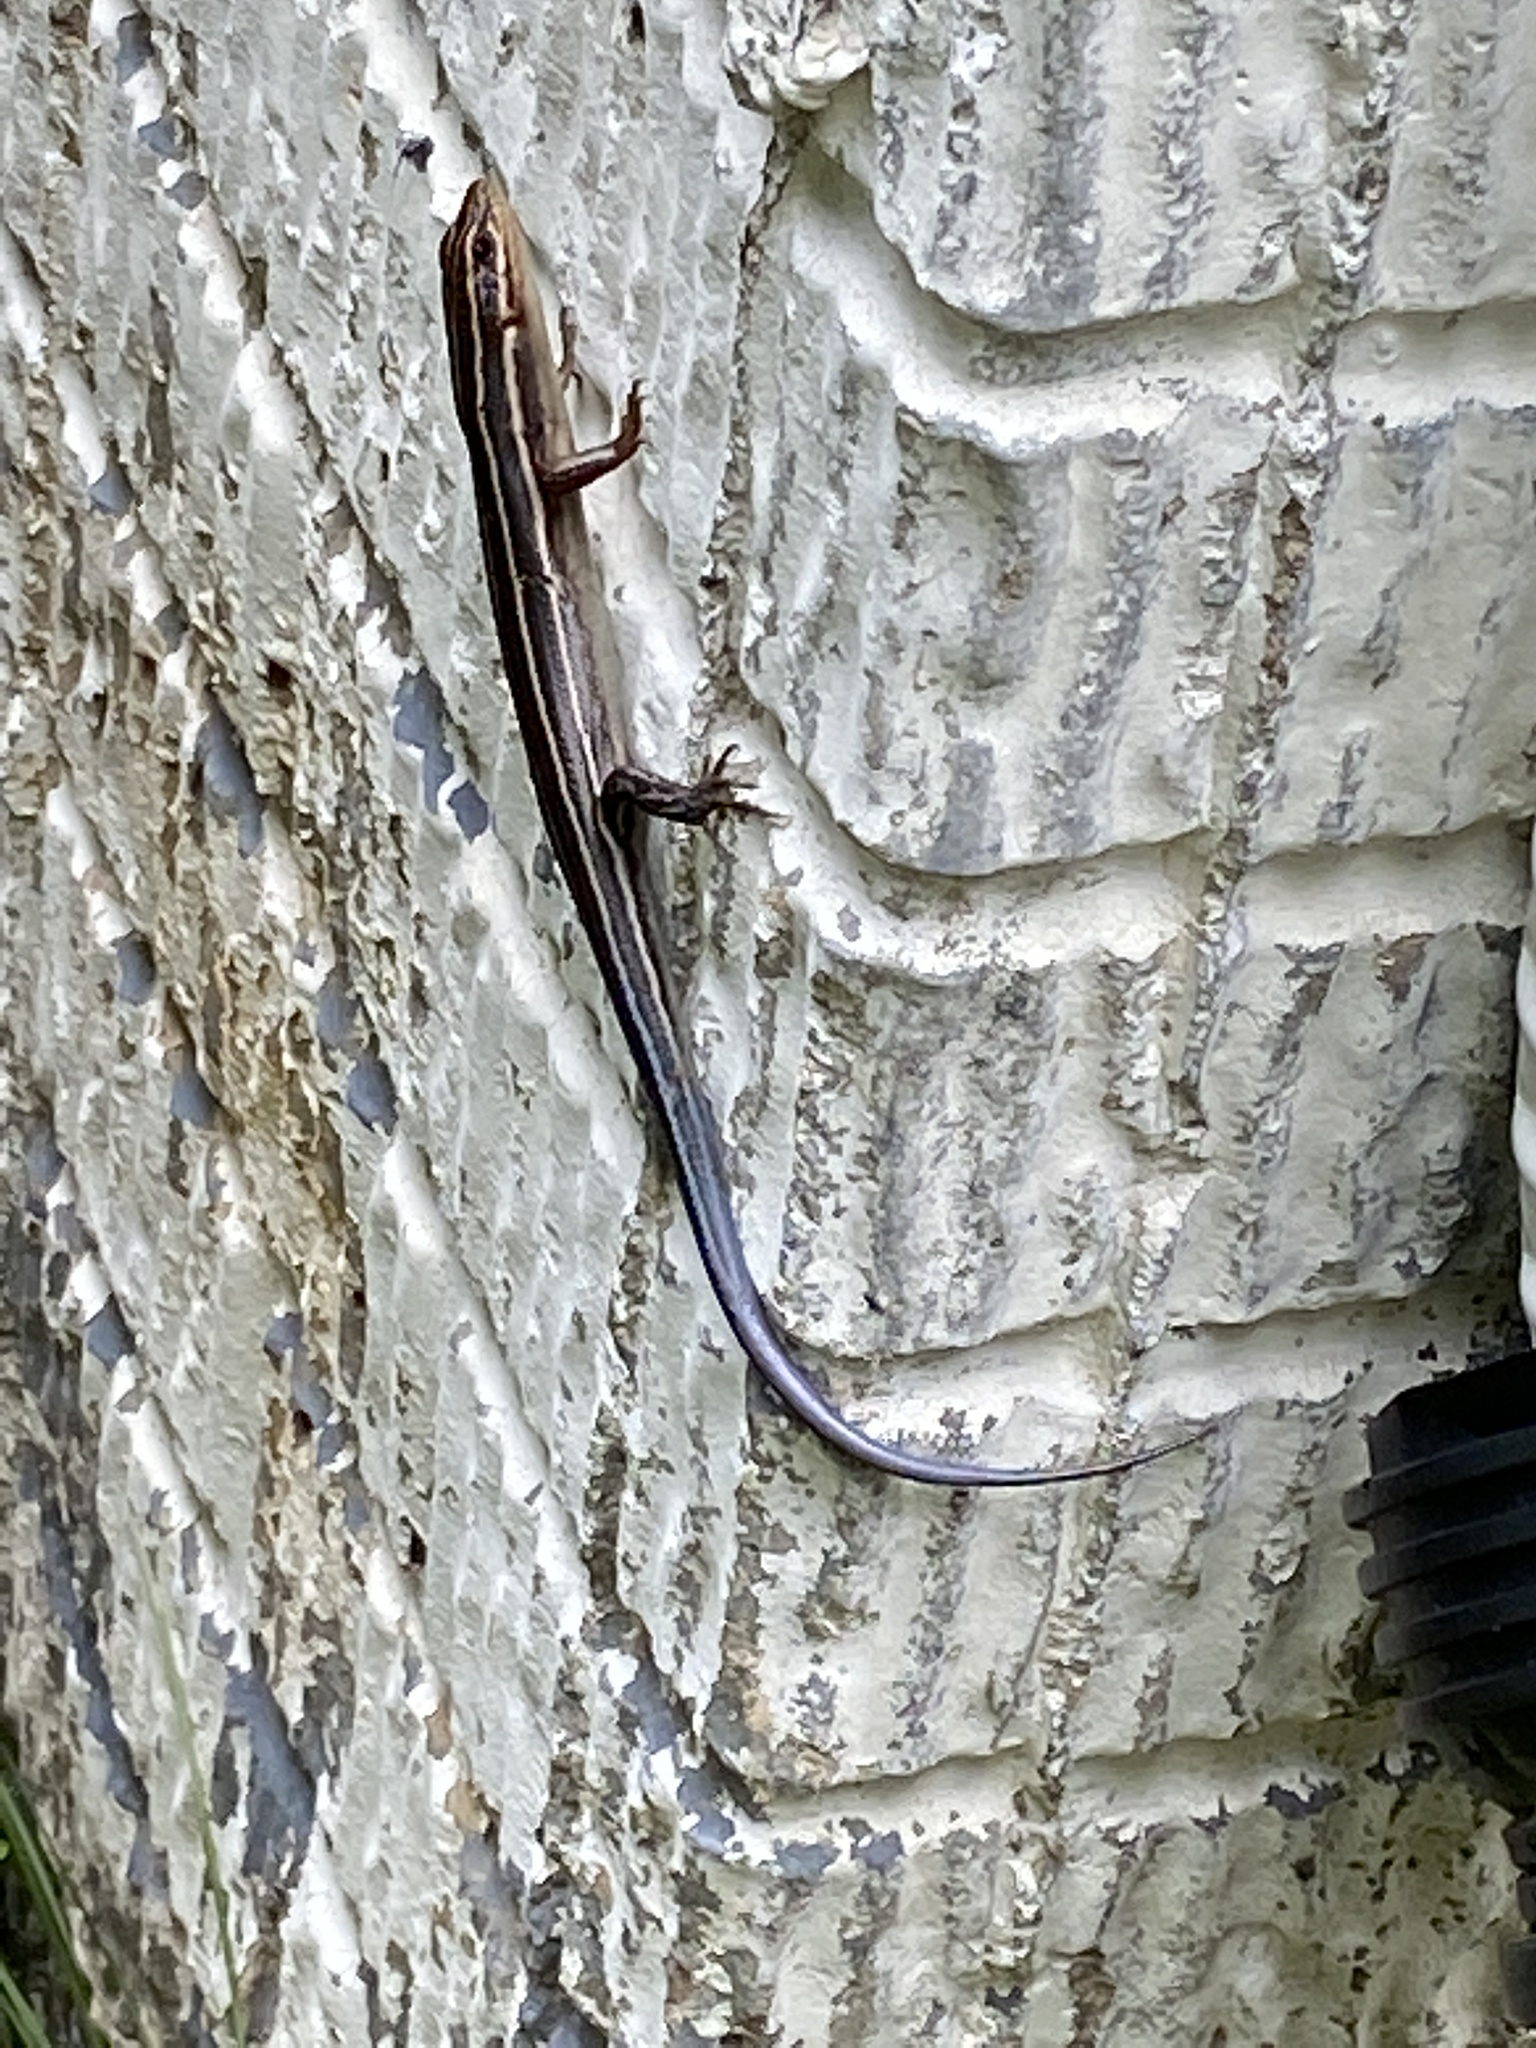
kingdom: Animalia
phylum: Chordata
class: Squamata
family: Scincidae
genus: Plestiodon
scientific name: Plestiodon laticeps
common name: Broadhead skink
